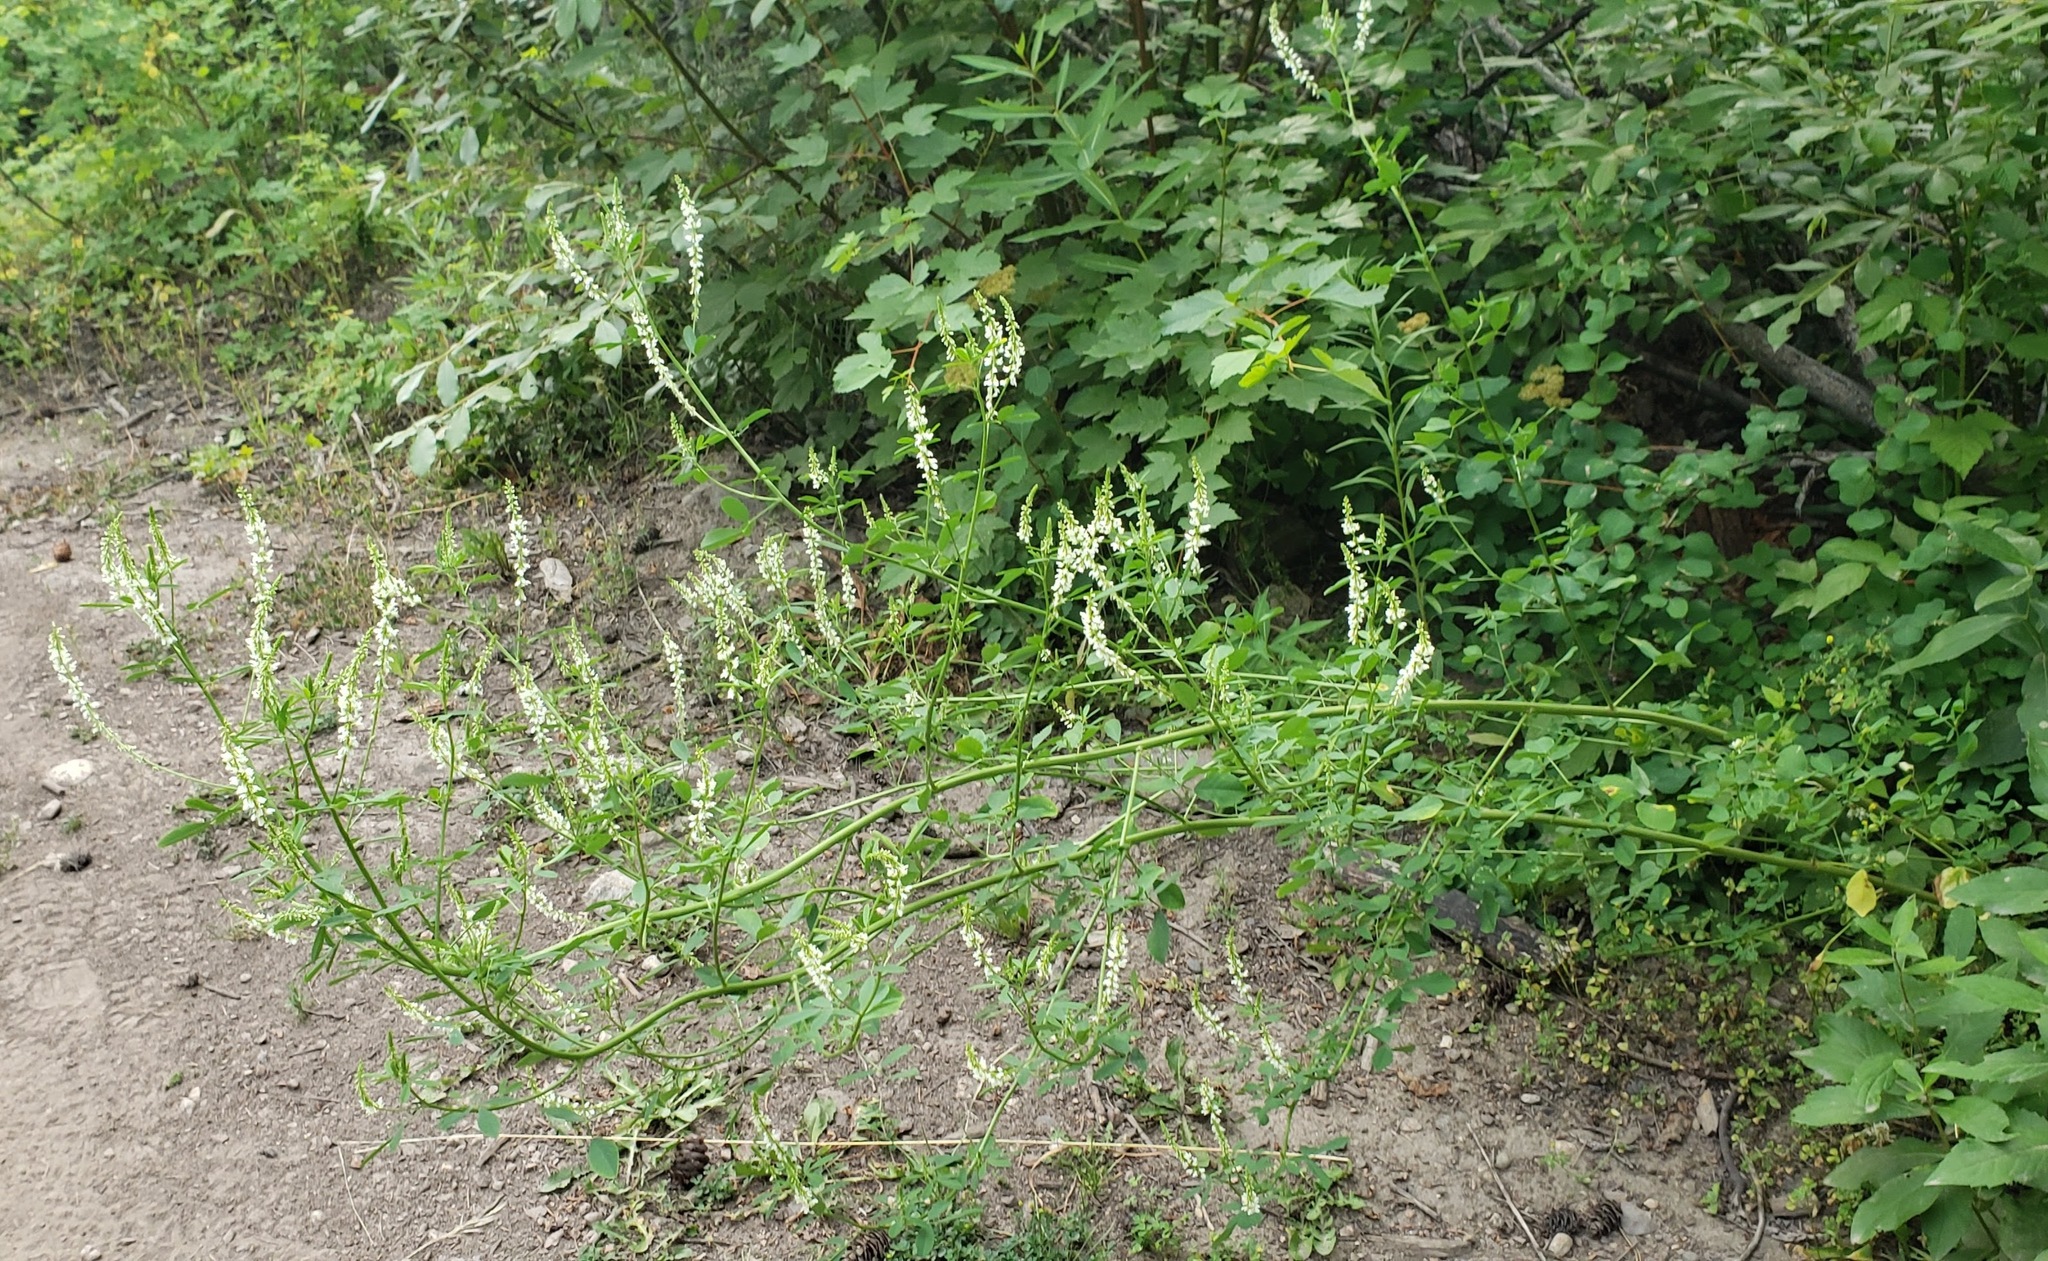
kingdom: Plantae
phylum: Tracheophyta
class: Magnoliopsida
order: Fabales
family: Fabaceae
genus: Melilotus
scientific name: Melilotus albus
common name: White melilot
